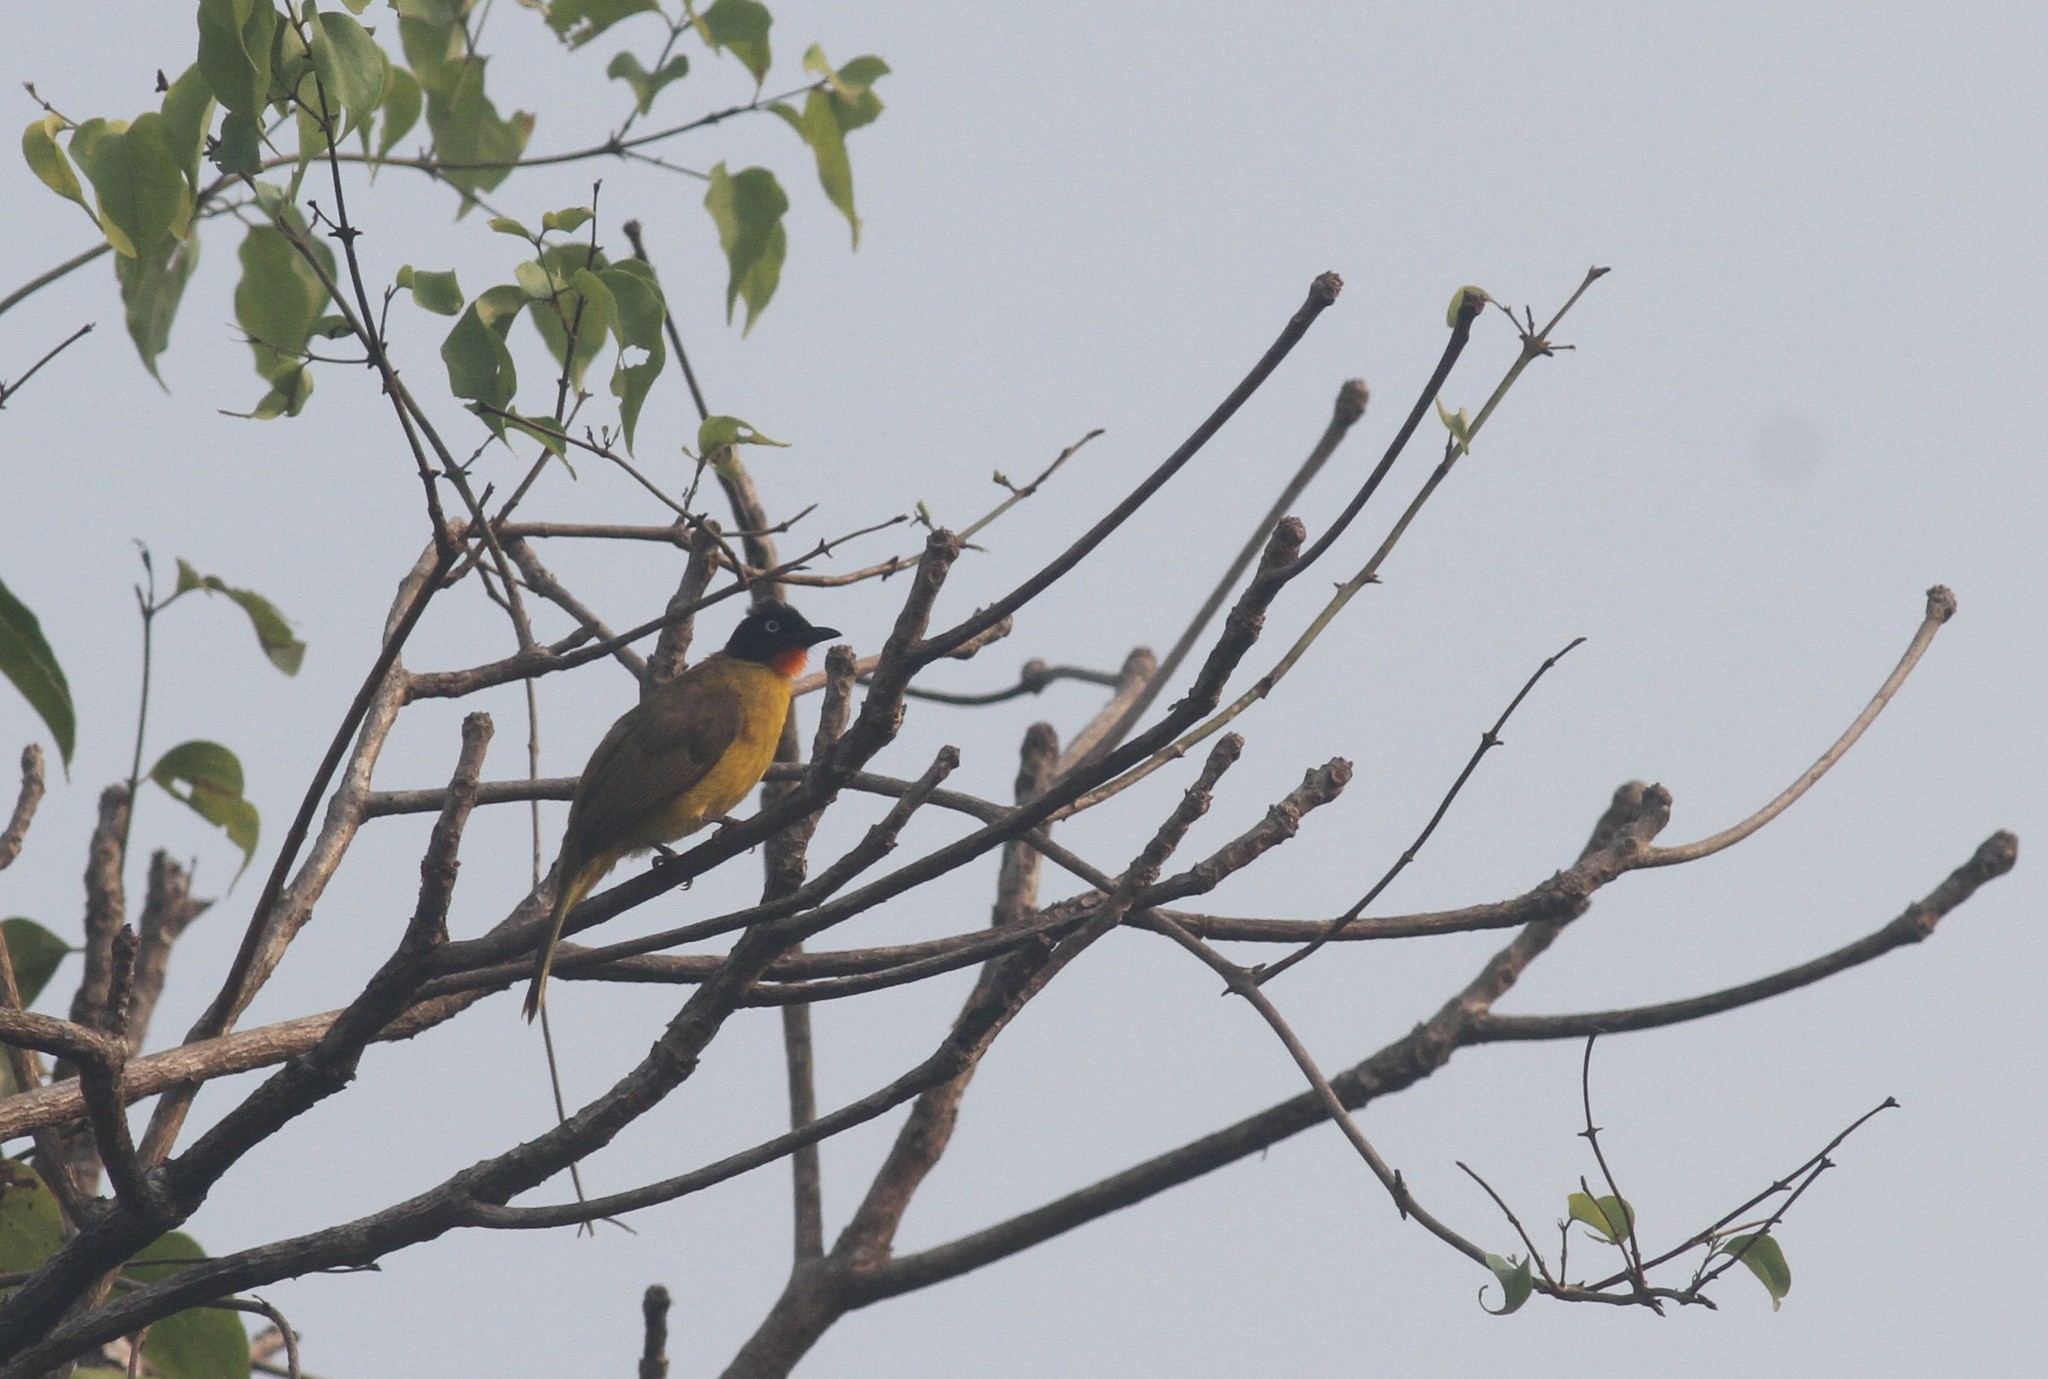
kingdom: Animalia
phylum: Chordata
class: Aves
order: Passeriformes
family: Pycnonotidae
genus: Pycnonotus
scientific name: Pycnonotus gularis
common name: Flame-throated bulbul
